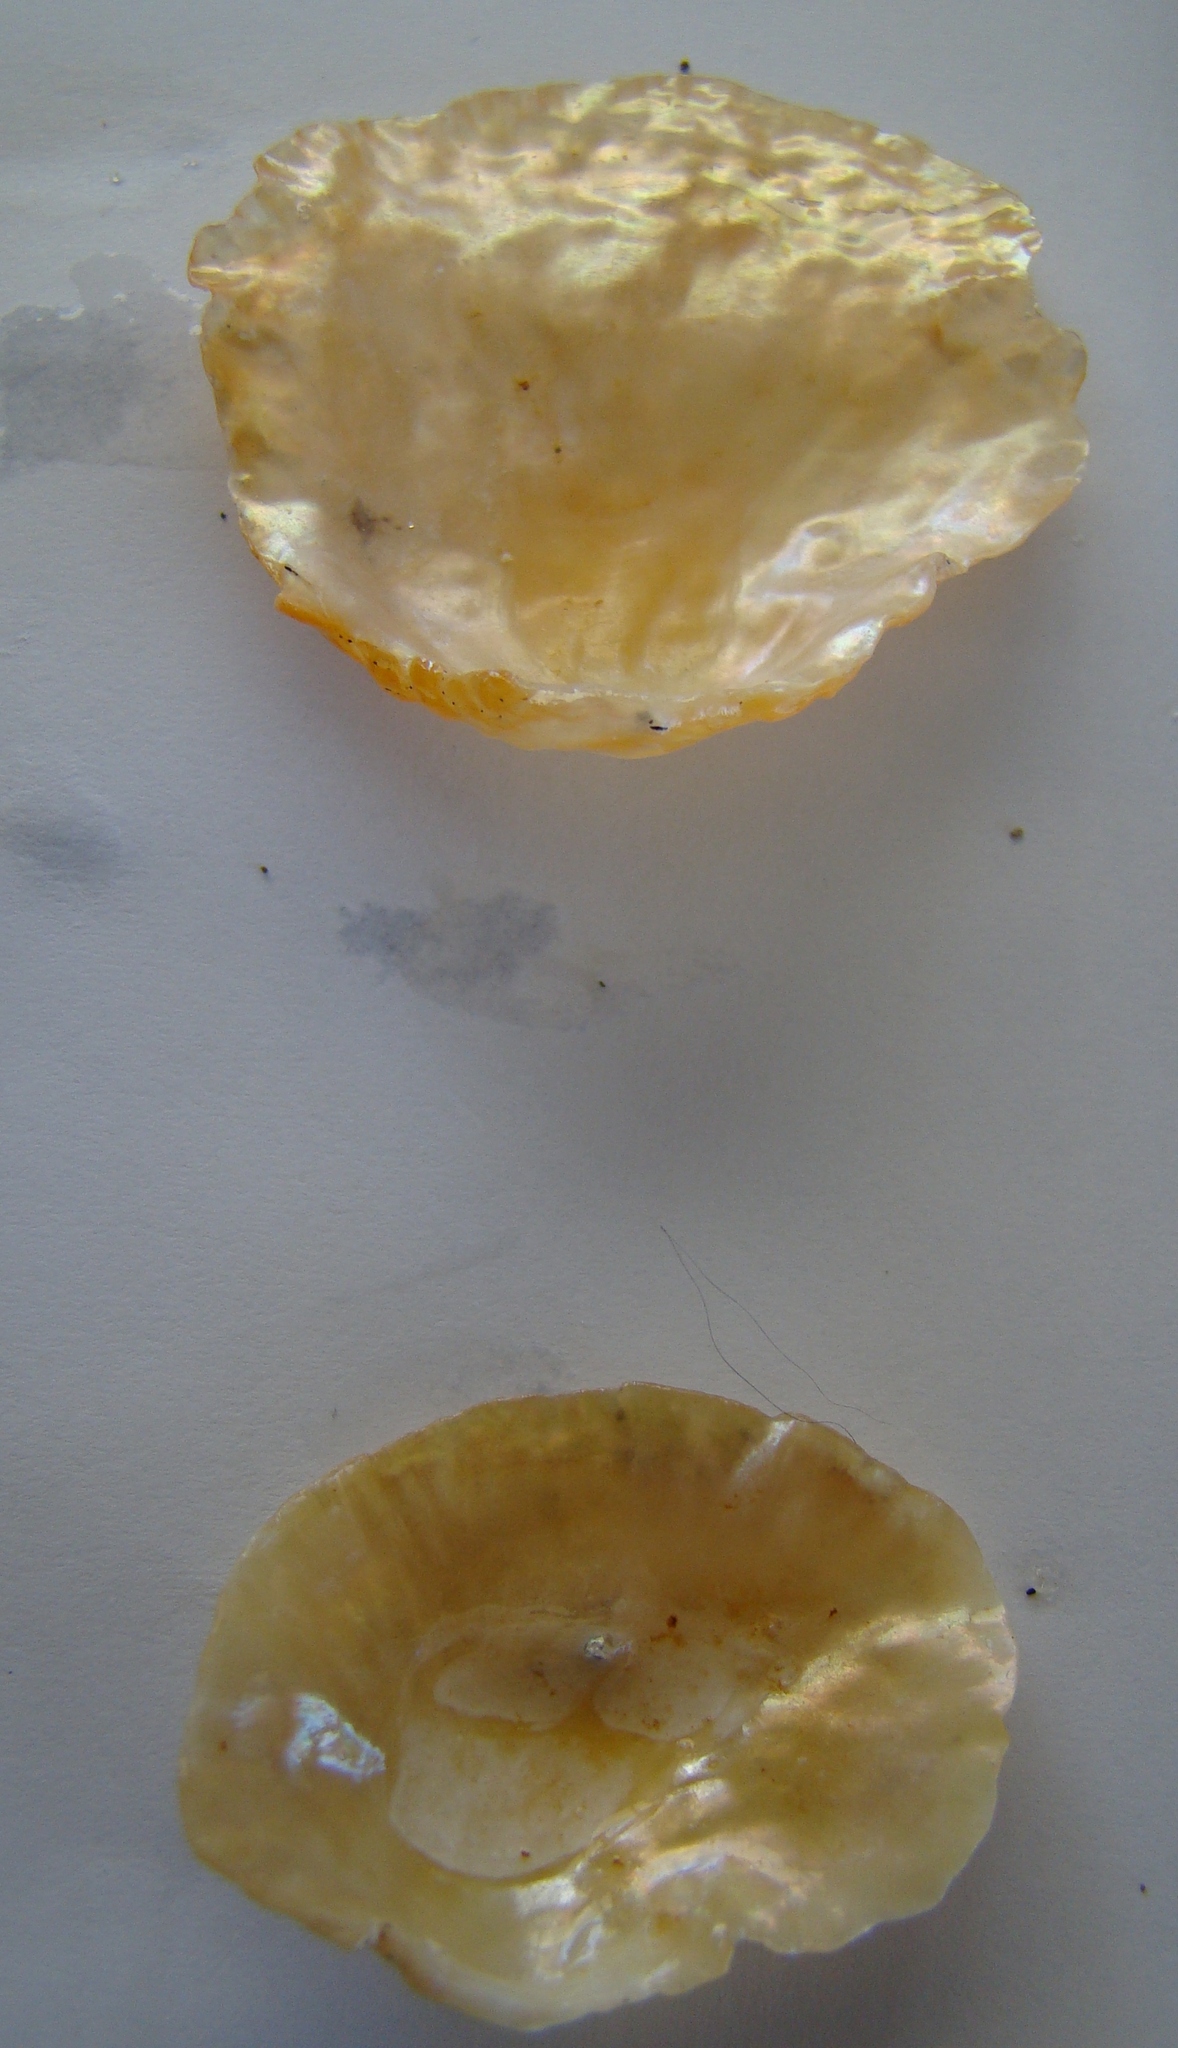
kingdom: Animalia
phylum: Mollusca
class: Bivalvia
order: Pectinida
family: Anomiidae
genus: Anomia
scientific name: Anomia trigonopsis
